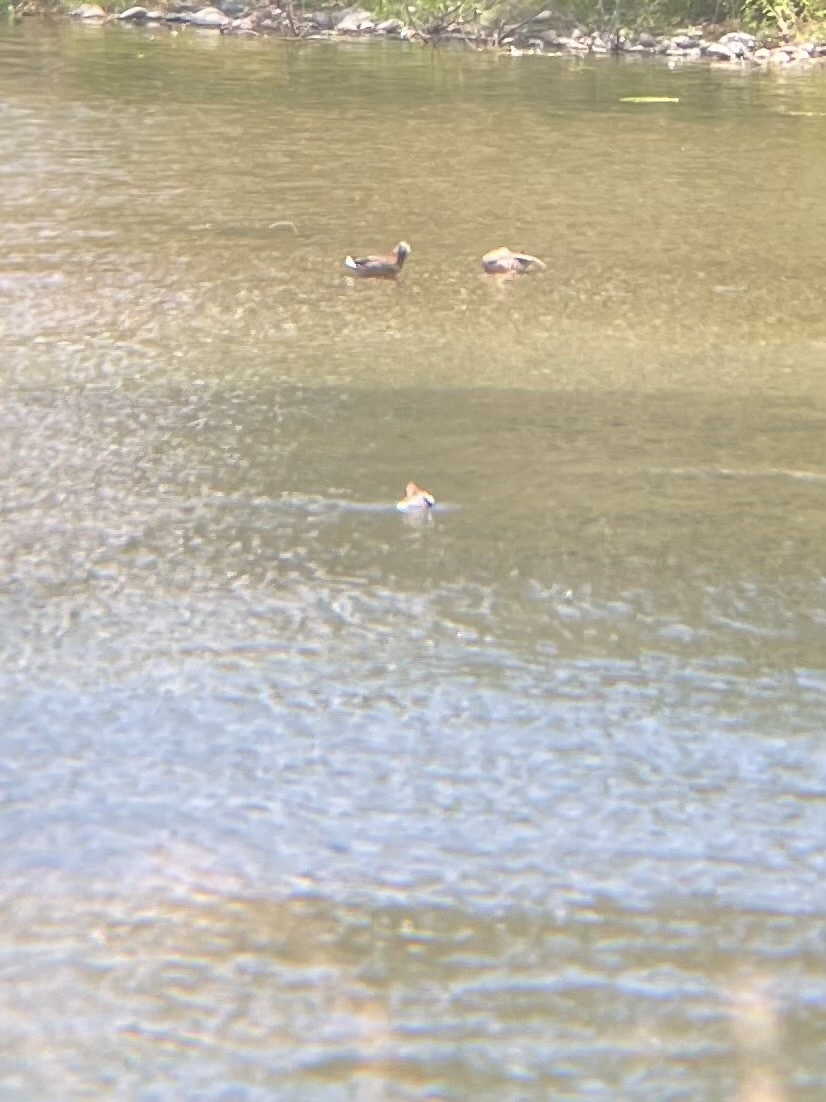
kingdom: Animalia
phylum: Chordata
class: Aves
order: Anseriformes
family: Anatidae
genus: Mergus
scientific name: Mergus merganser
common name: Common merganser
